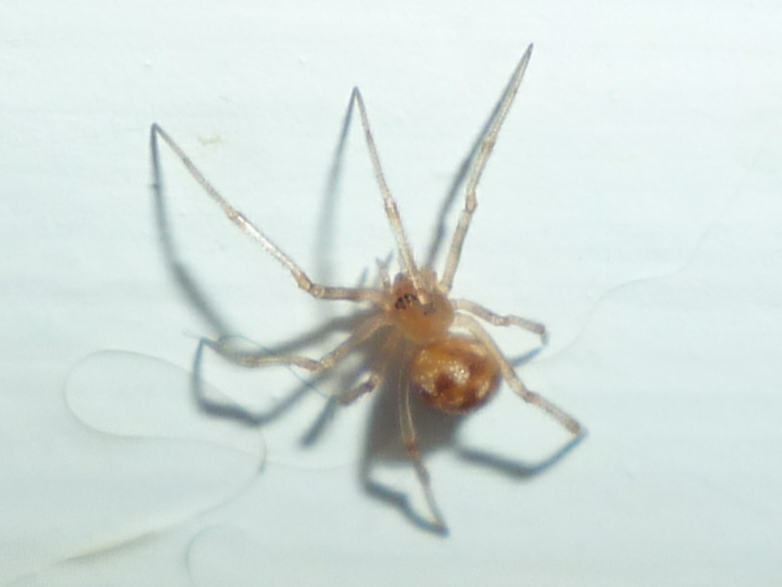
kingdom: Animalia
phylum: Arthropoda
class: Arachnida
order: Araneae
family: Theridiidae
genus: Steatoda
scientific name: Steatoda triangulosa
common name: Triangulate bud spider
